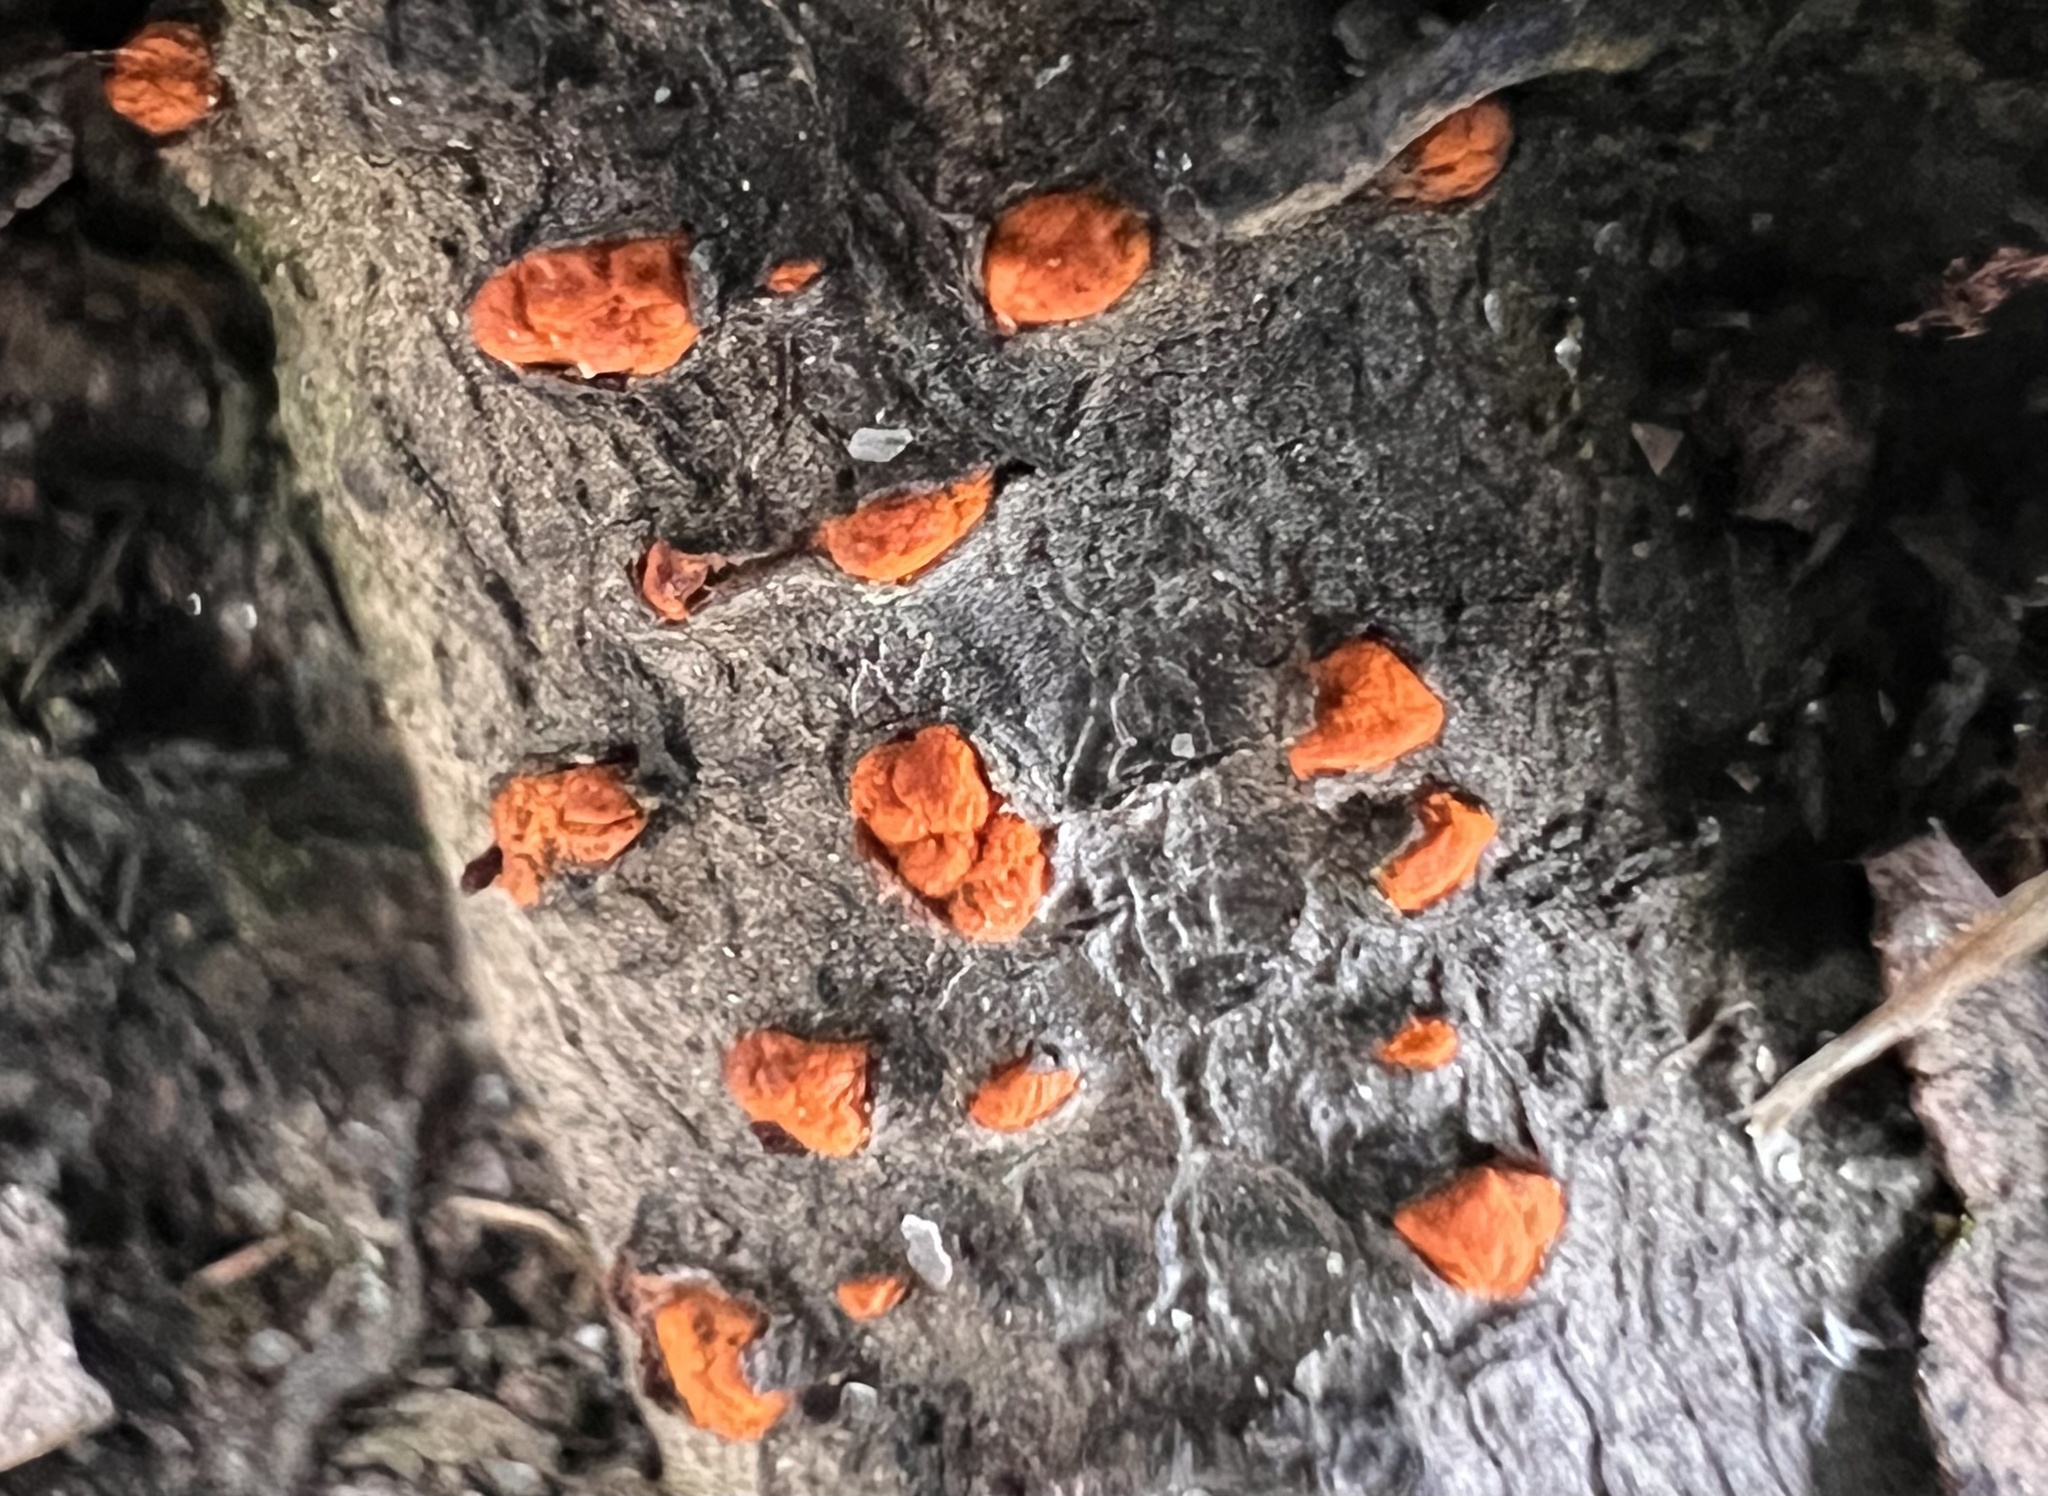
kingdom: Fungi
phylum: Ascomycota
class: Sordariomycetes
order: Diaporthales
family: Cryphonectriaceae
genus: Amphilogia
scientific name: Amphilogia gyrosa
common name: Orange hobnail canker
